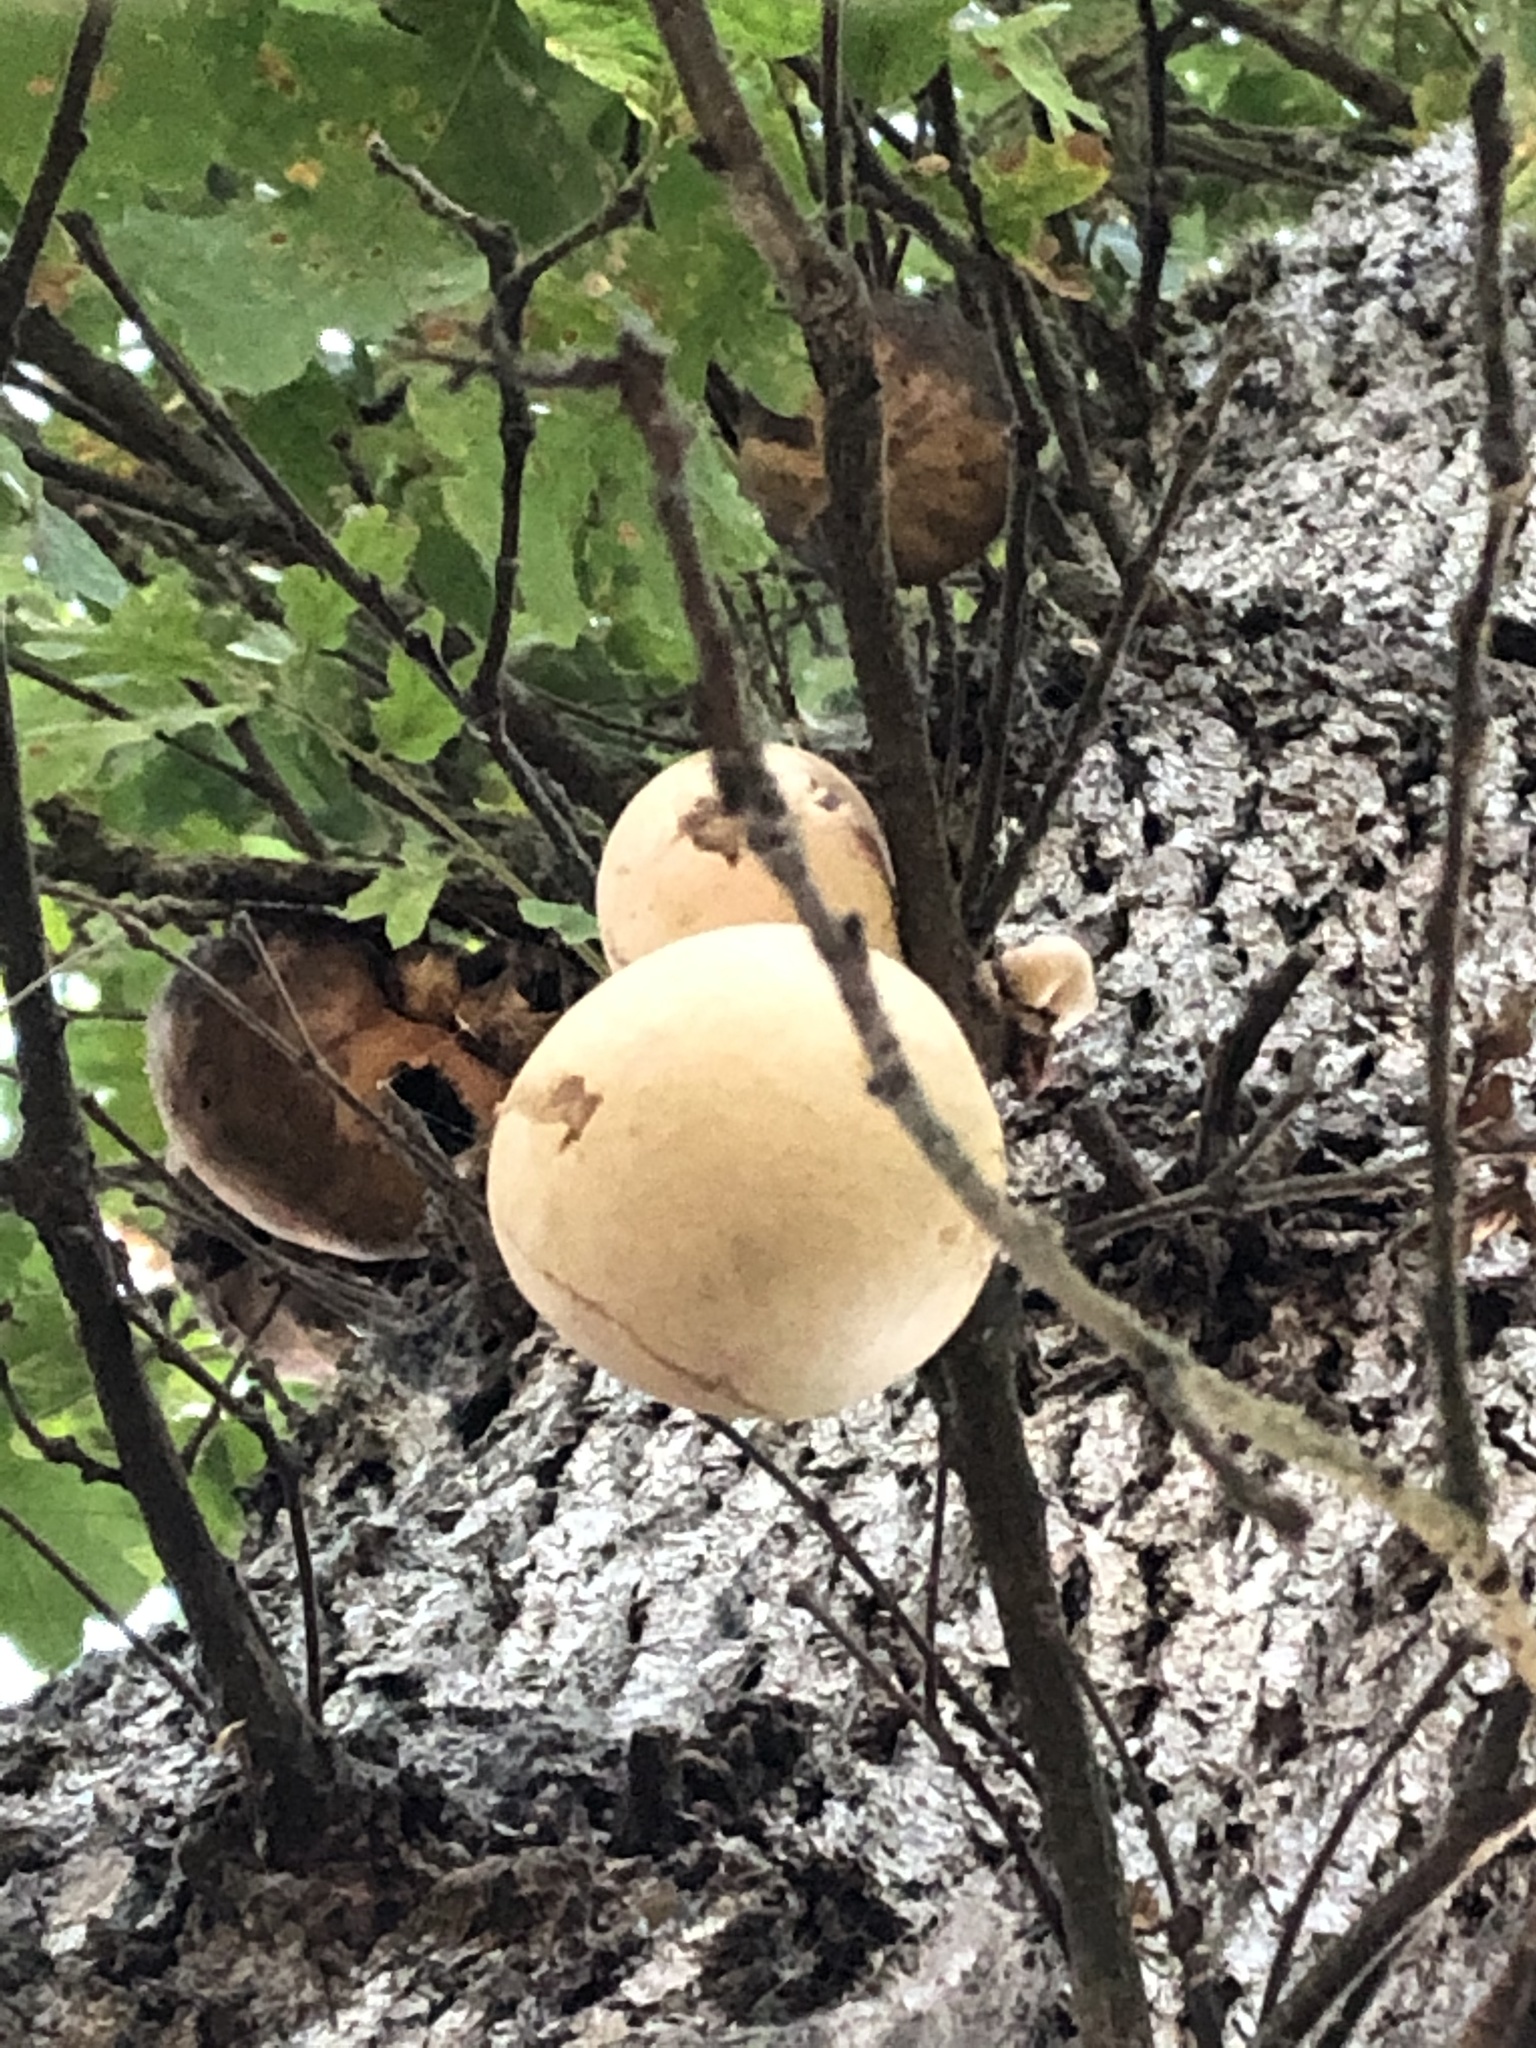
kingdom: Animalia
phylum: Arthropoda
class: Insecta
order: Hymenoptera
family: Cynipidae
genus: Andricus
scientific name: Andricus quercuscalifornicus
